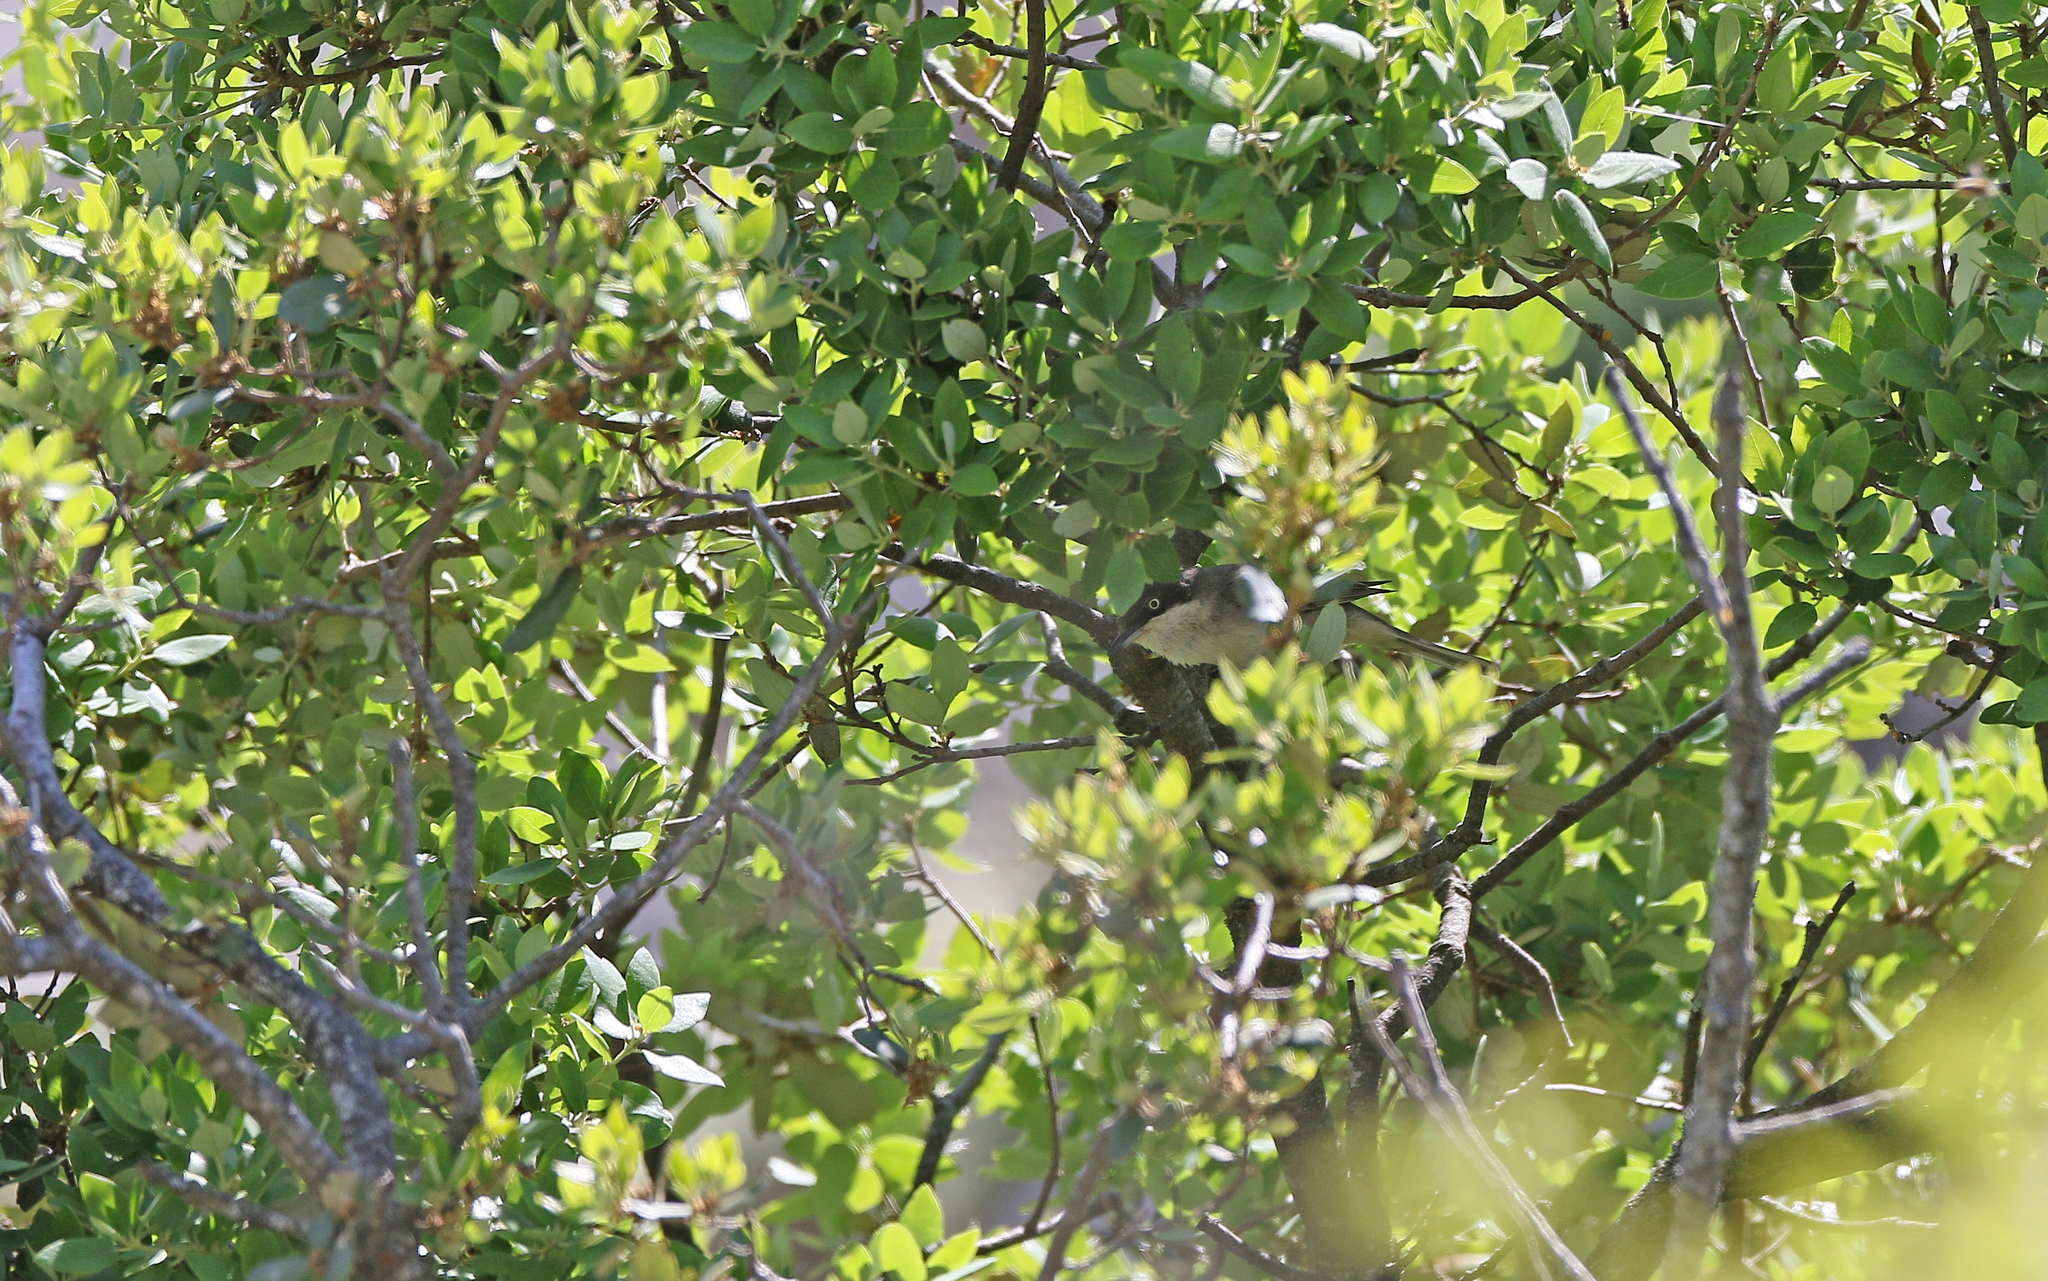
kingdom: Animalia
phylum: Chordata
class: Aves
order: Passeriformes
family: Sylviidae
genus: Sylvia
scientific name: Sylvia hortensis
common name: Orphean warbler
